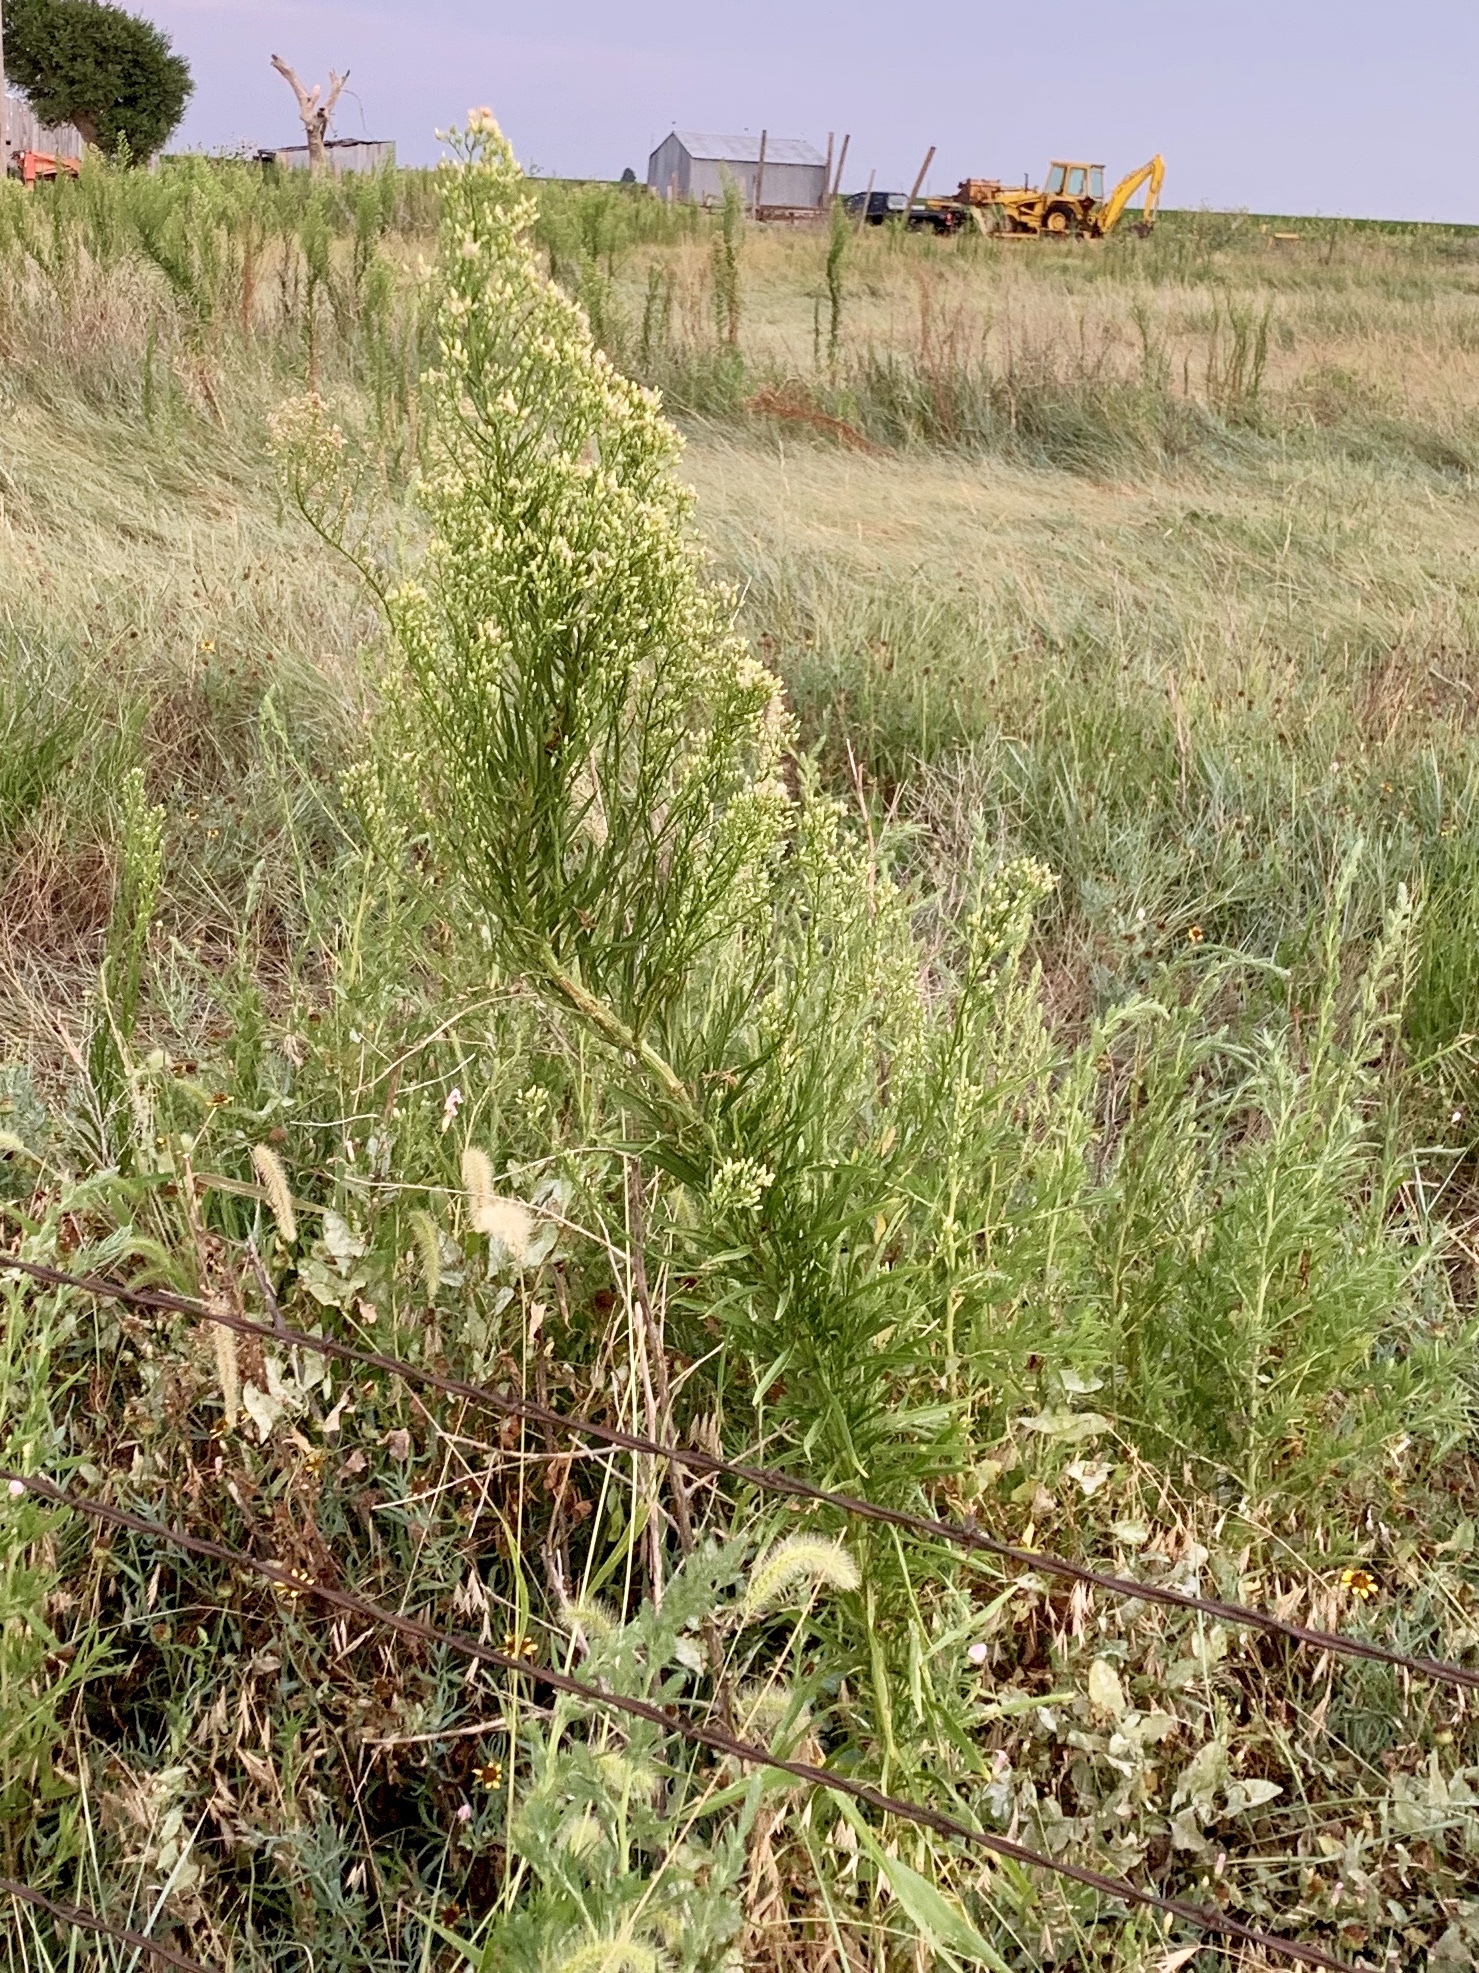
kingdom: Plantae
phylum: Tracheophyta
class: Magnoliopsida
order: Asterales
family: Asteraceae
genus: Erigeron
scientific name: Erigeron canadensis
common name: Canadian fleabane
